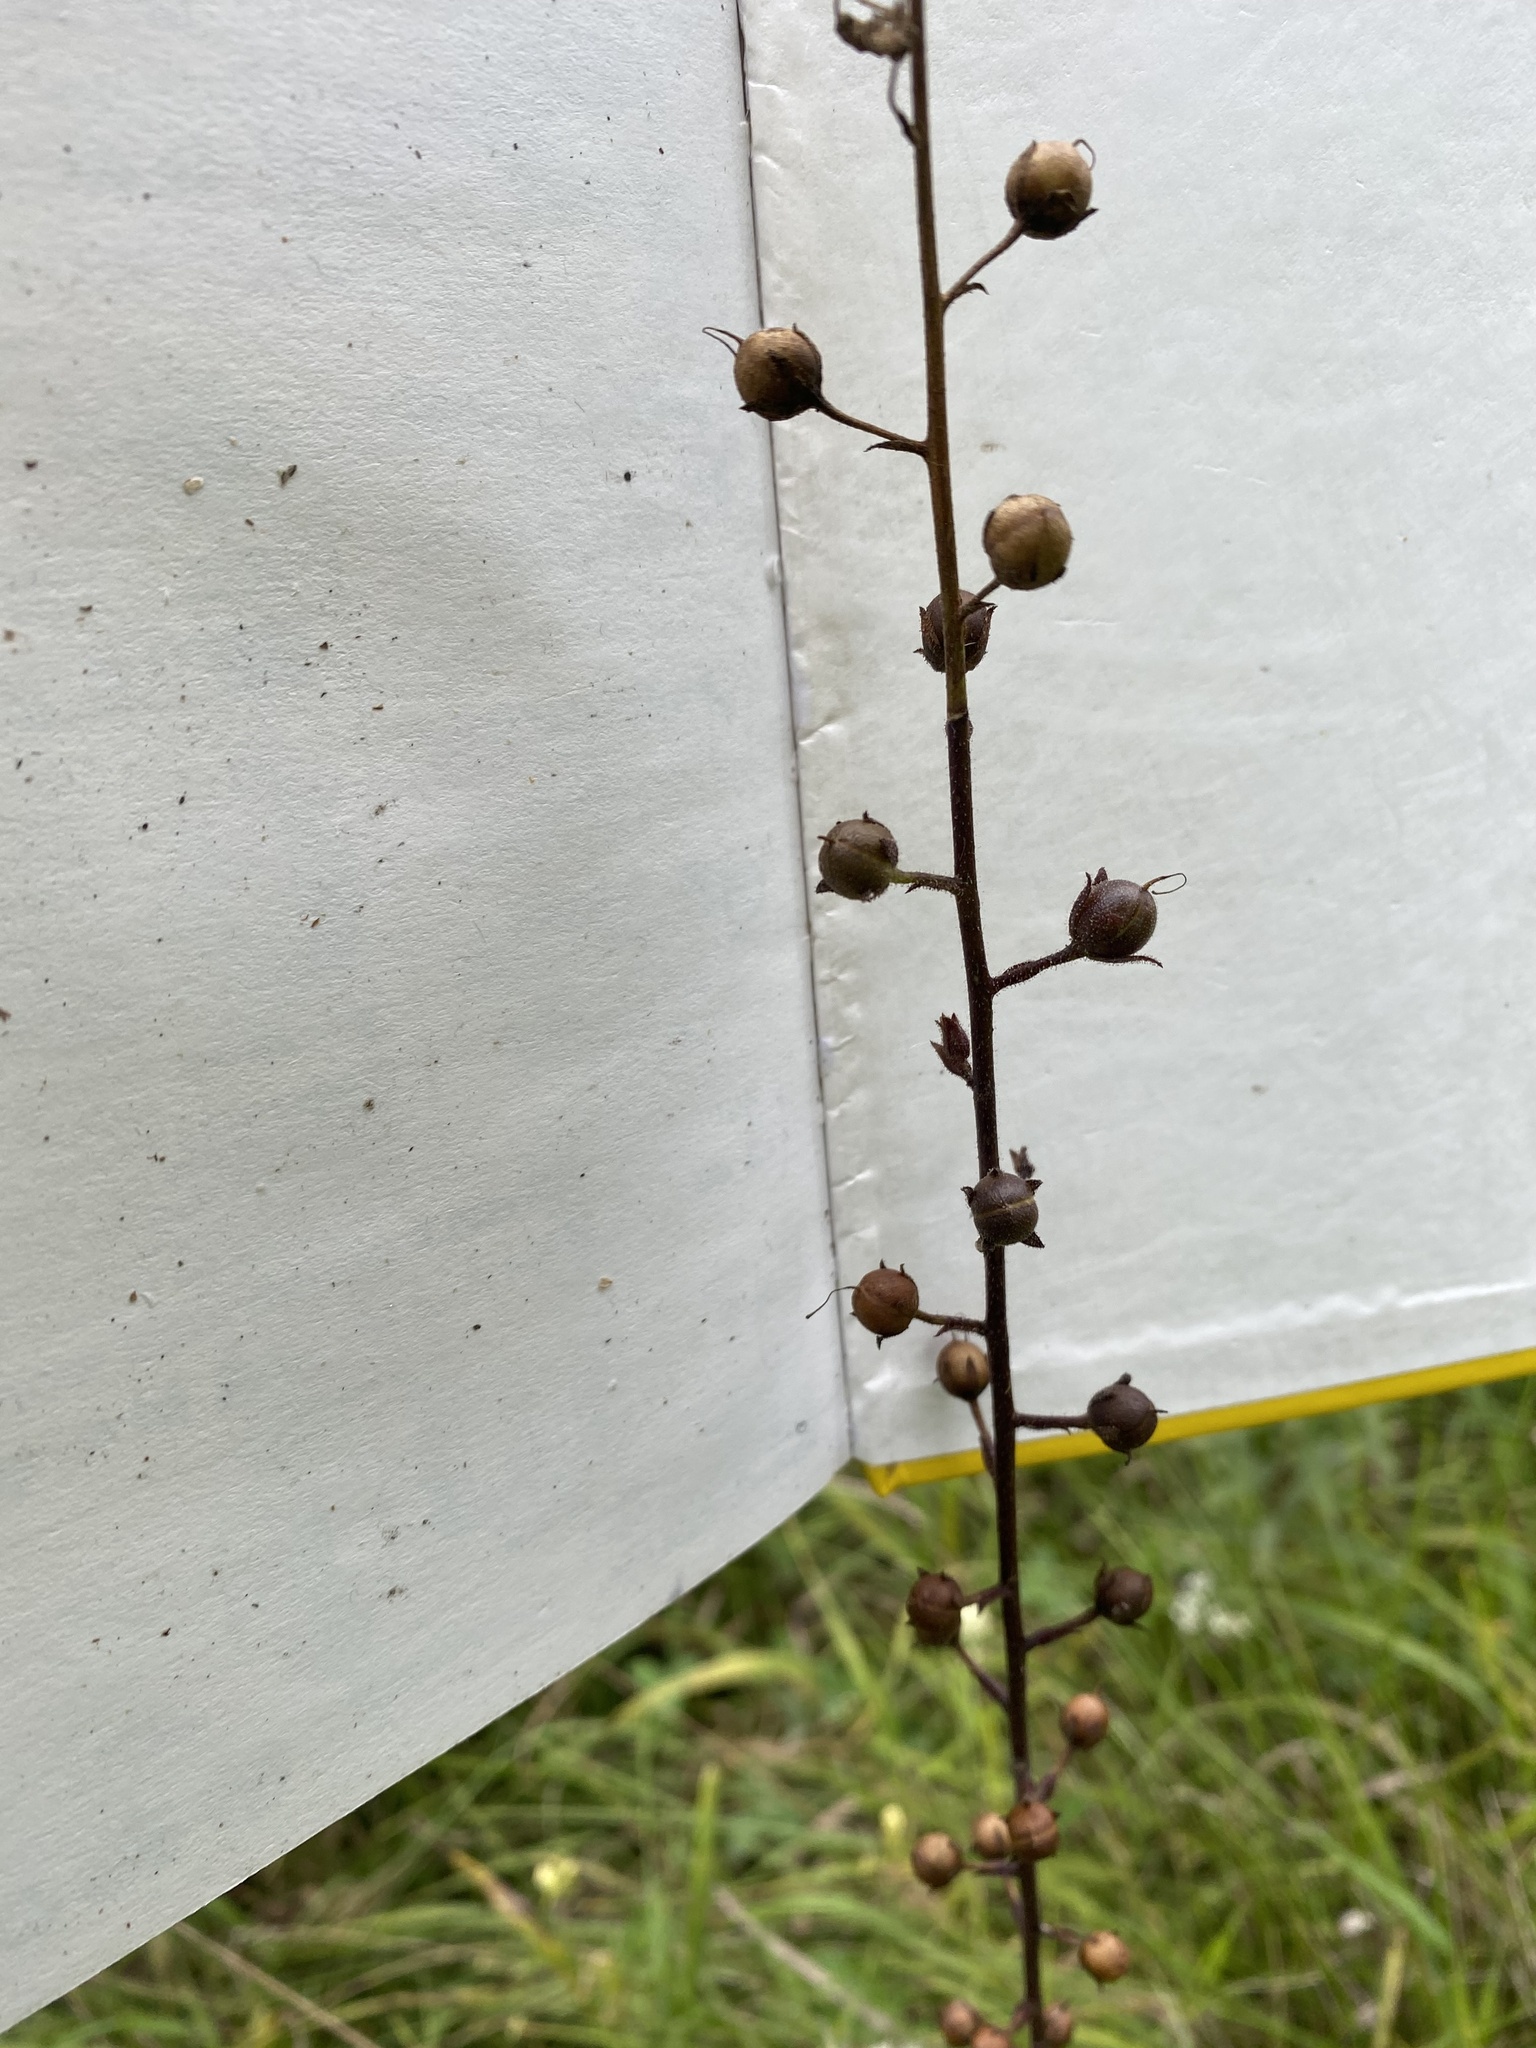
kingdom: Plantae
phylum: Tracheophyta
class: Magnoliopsida
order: Lamiales
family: Scrophulariaceae
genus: Verbascum
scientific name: Verbascum blattaria
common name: Moth mullein
